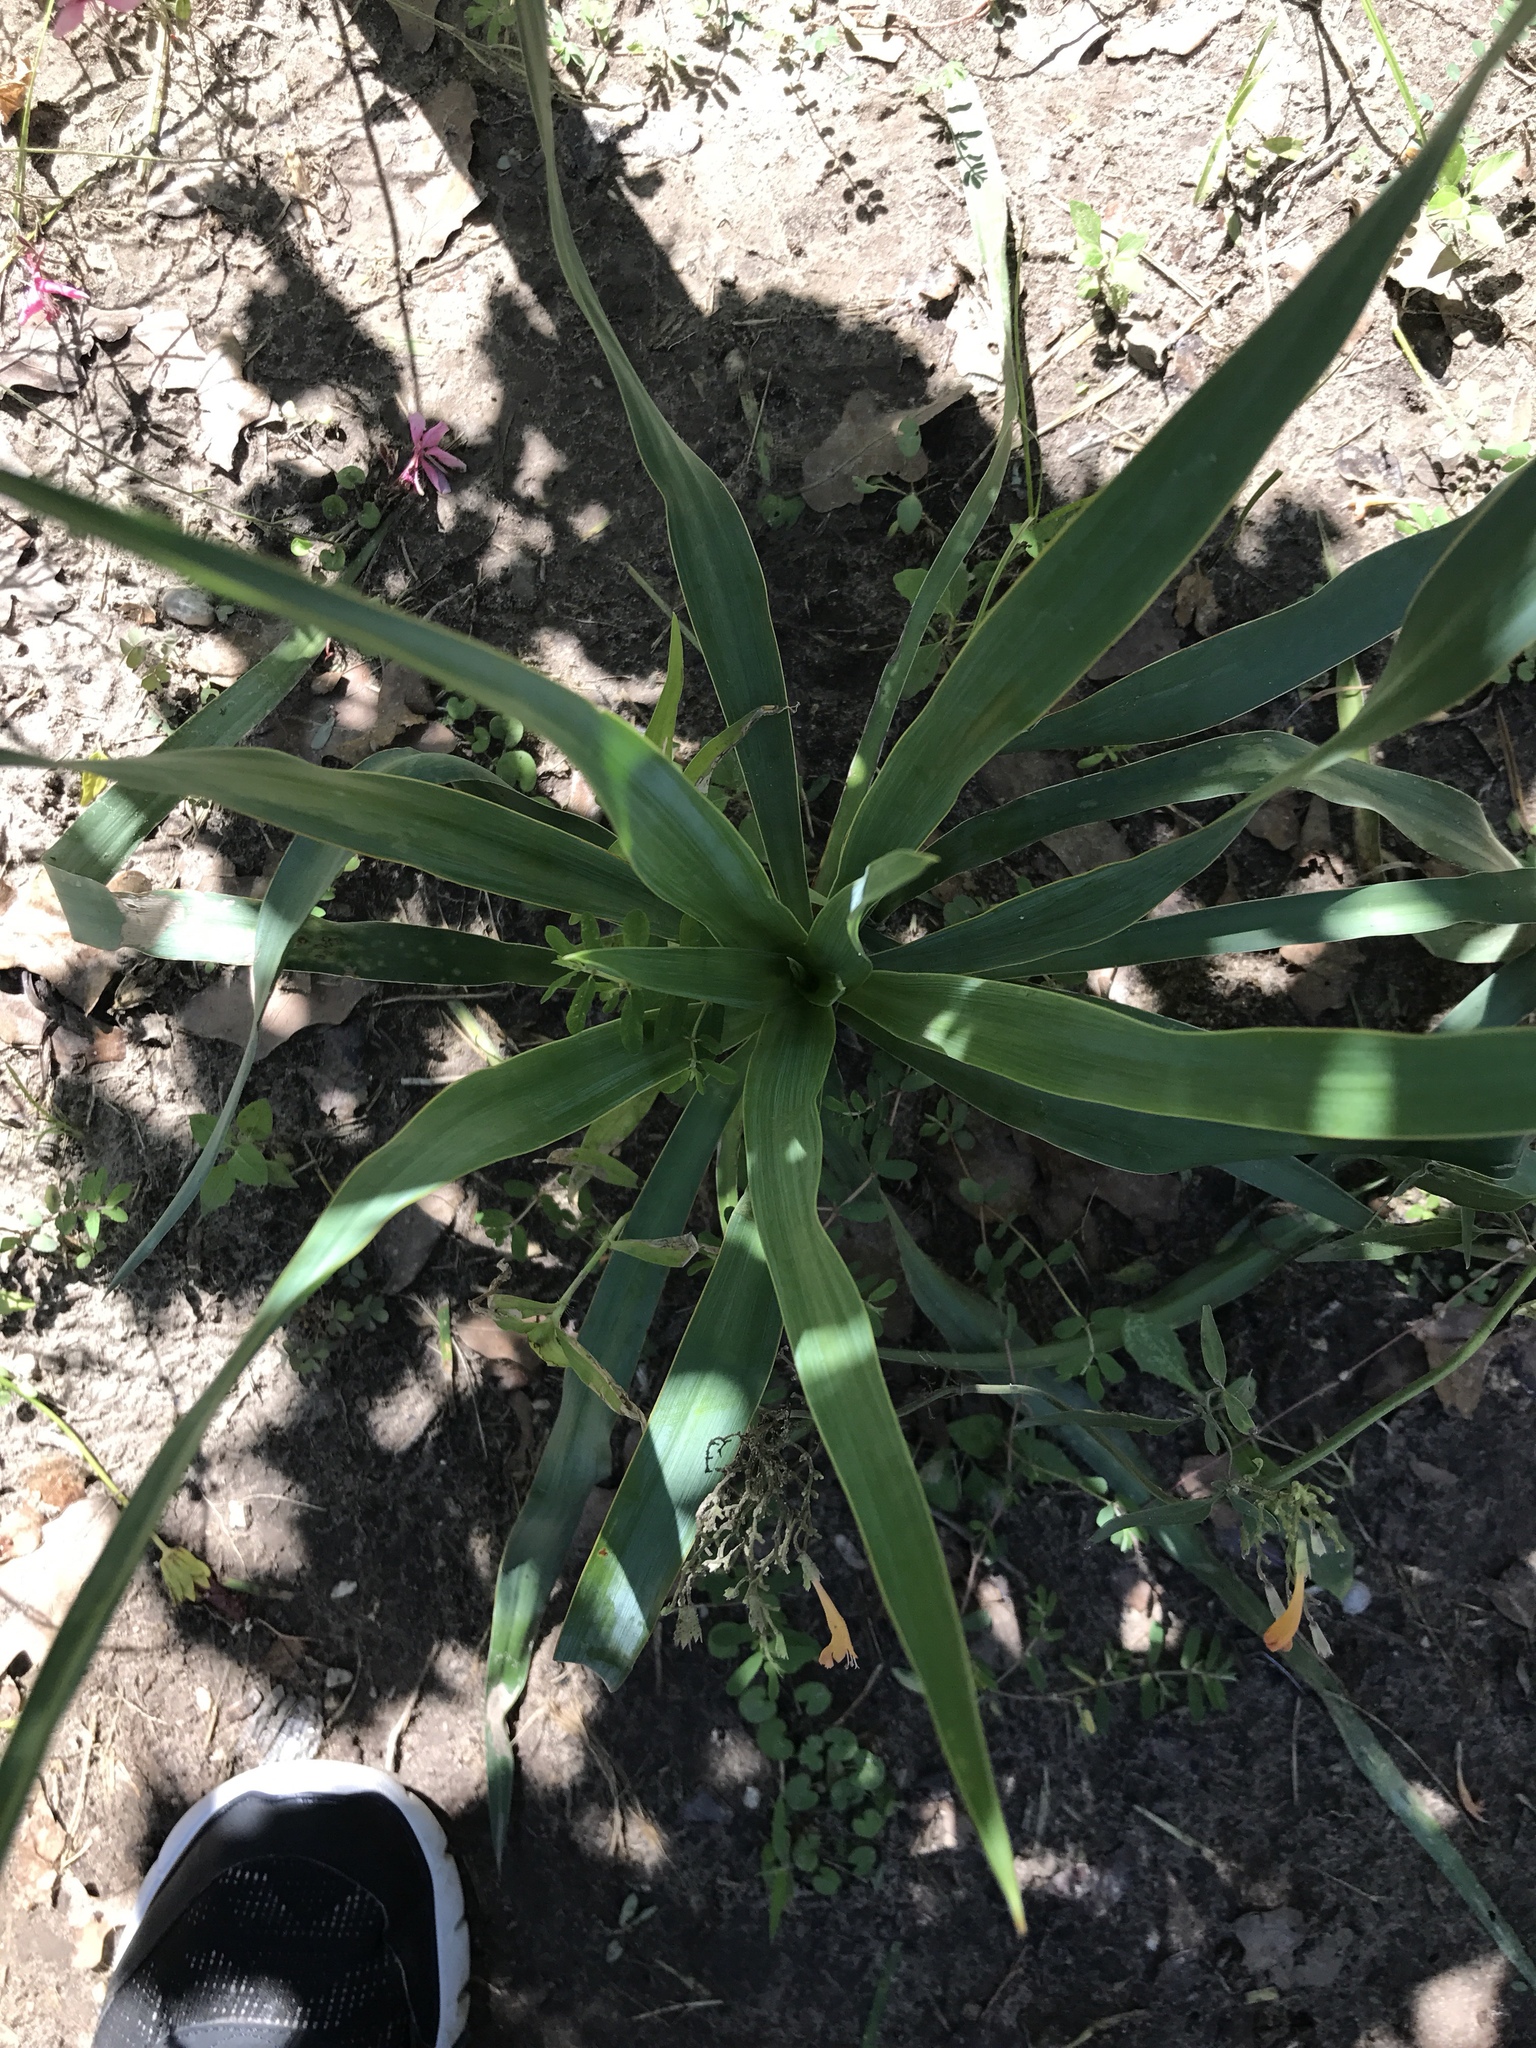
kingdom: Plantae
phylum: Tracheophyta
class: Liliopsida
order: Asparagales
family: Asparagaceae
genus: Yucca
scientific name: Yucca rupicola
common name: Twisted-leaf spanish-dagger
